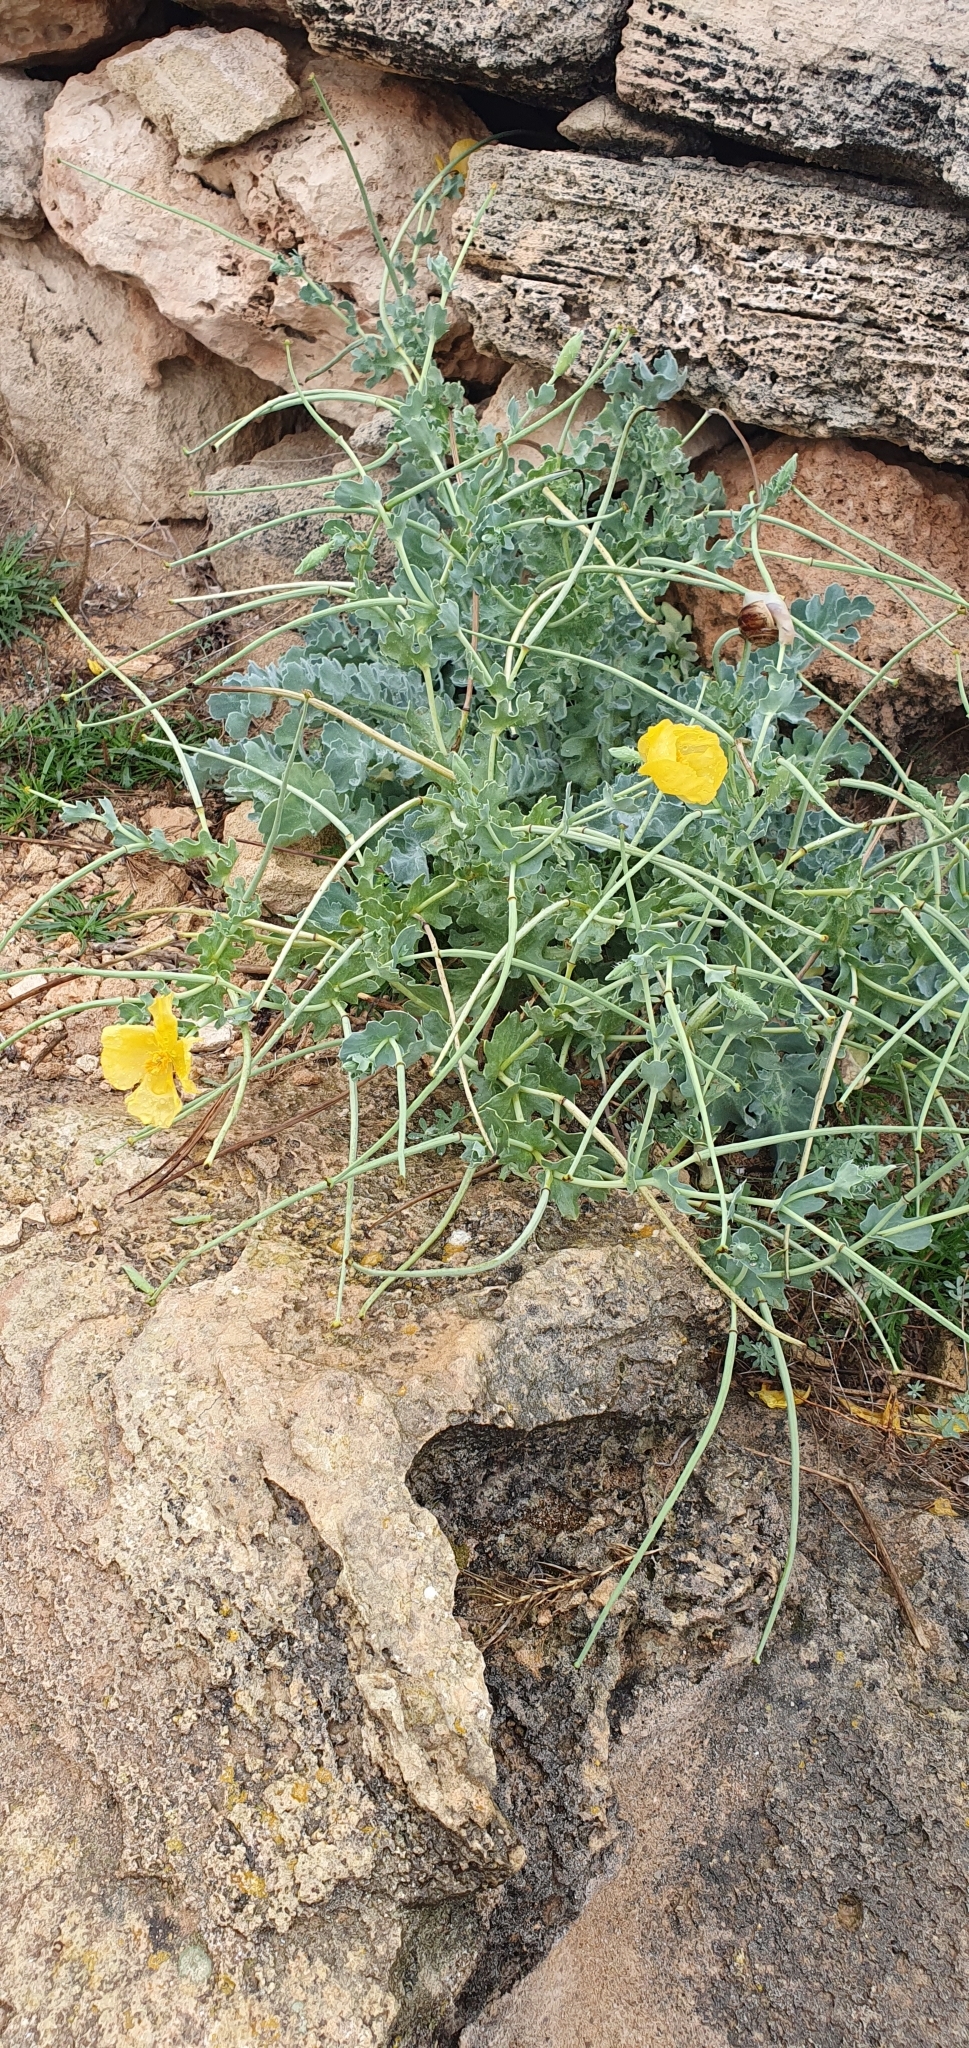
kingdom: Plantae
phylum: Tracheophyta
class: Magnoliopsida
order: Ranunculales
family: Papaveraceae
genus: Glaucium
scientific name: Glaucium flavum
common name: Yellow horned-poppy
